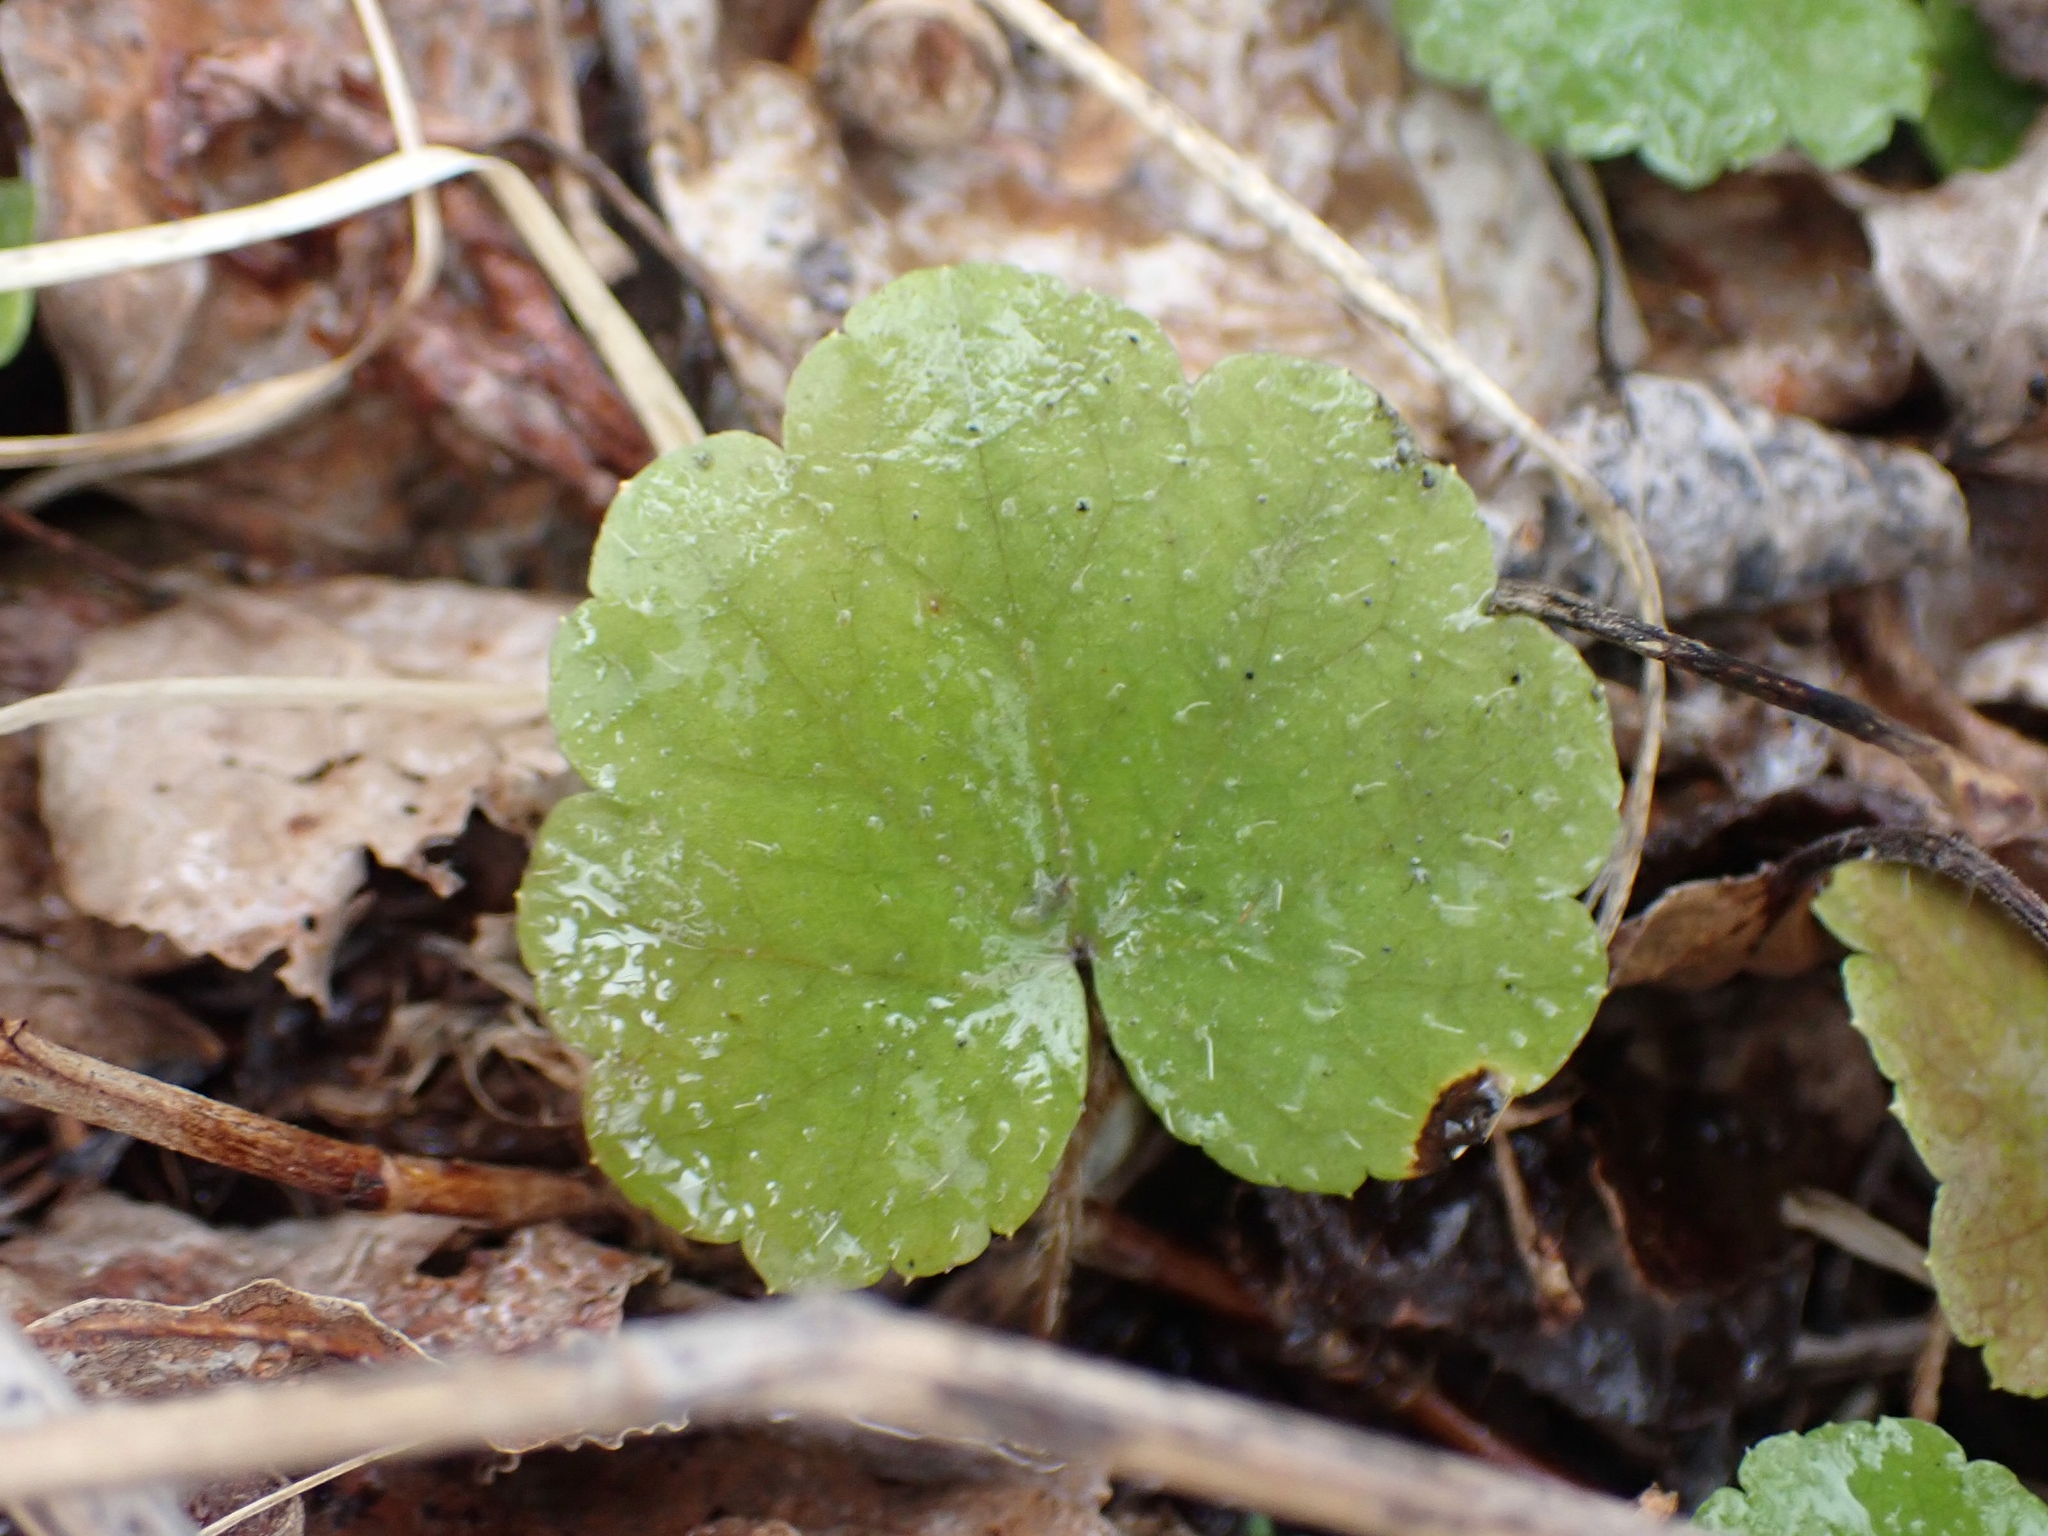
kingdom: Plantae
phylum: Tracheophyta
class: Magnoliopsida
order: Saxifragales
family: Saxifragaceae
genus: Mitella
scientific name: Mitella nuda
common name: Bare-stemmed bishop's-cap
